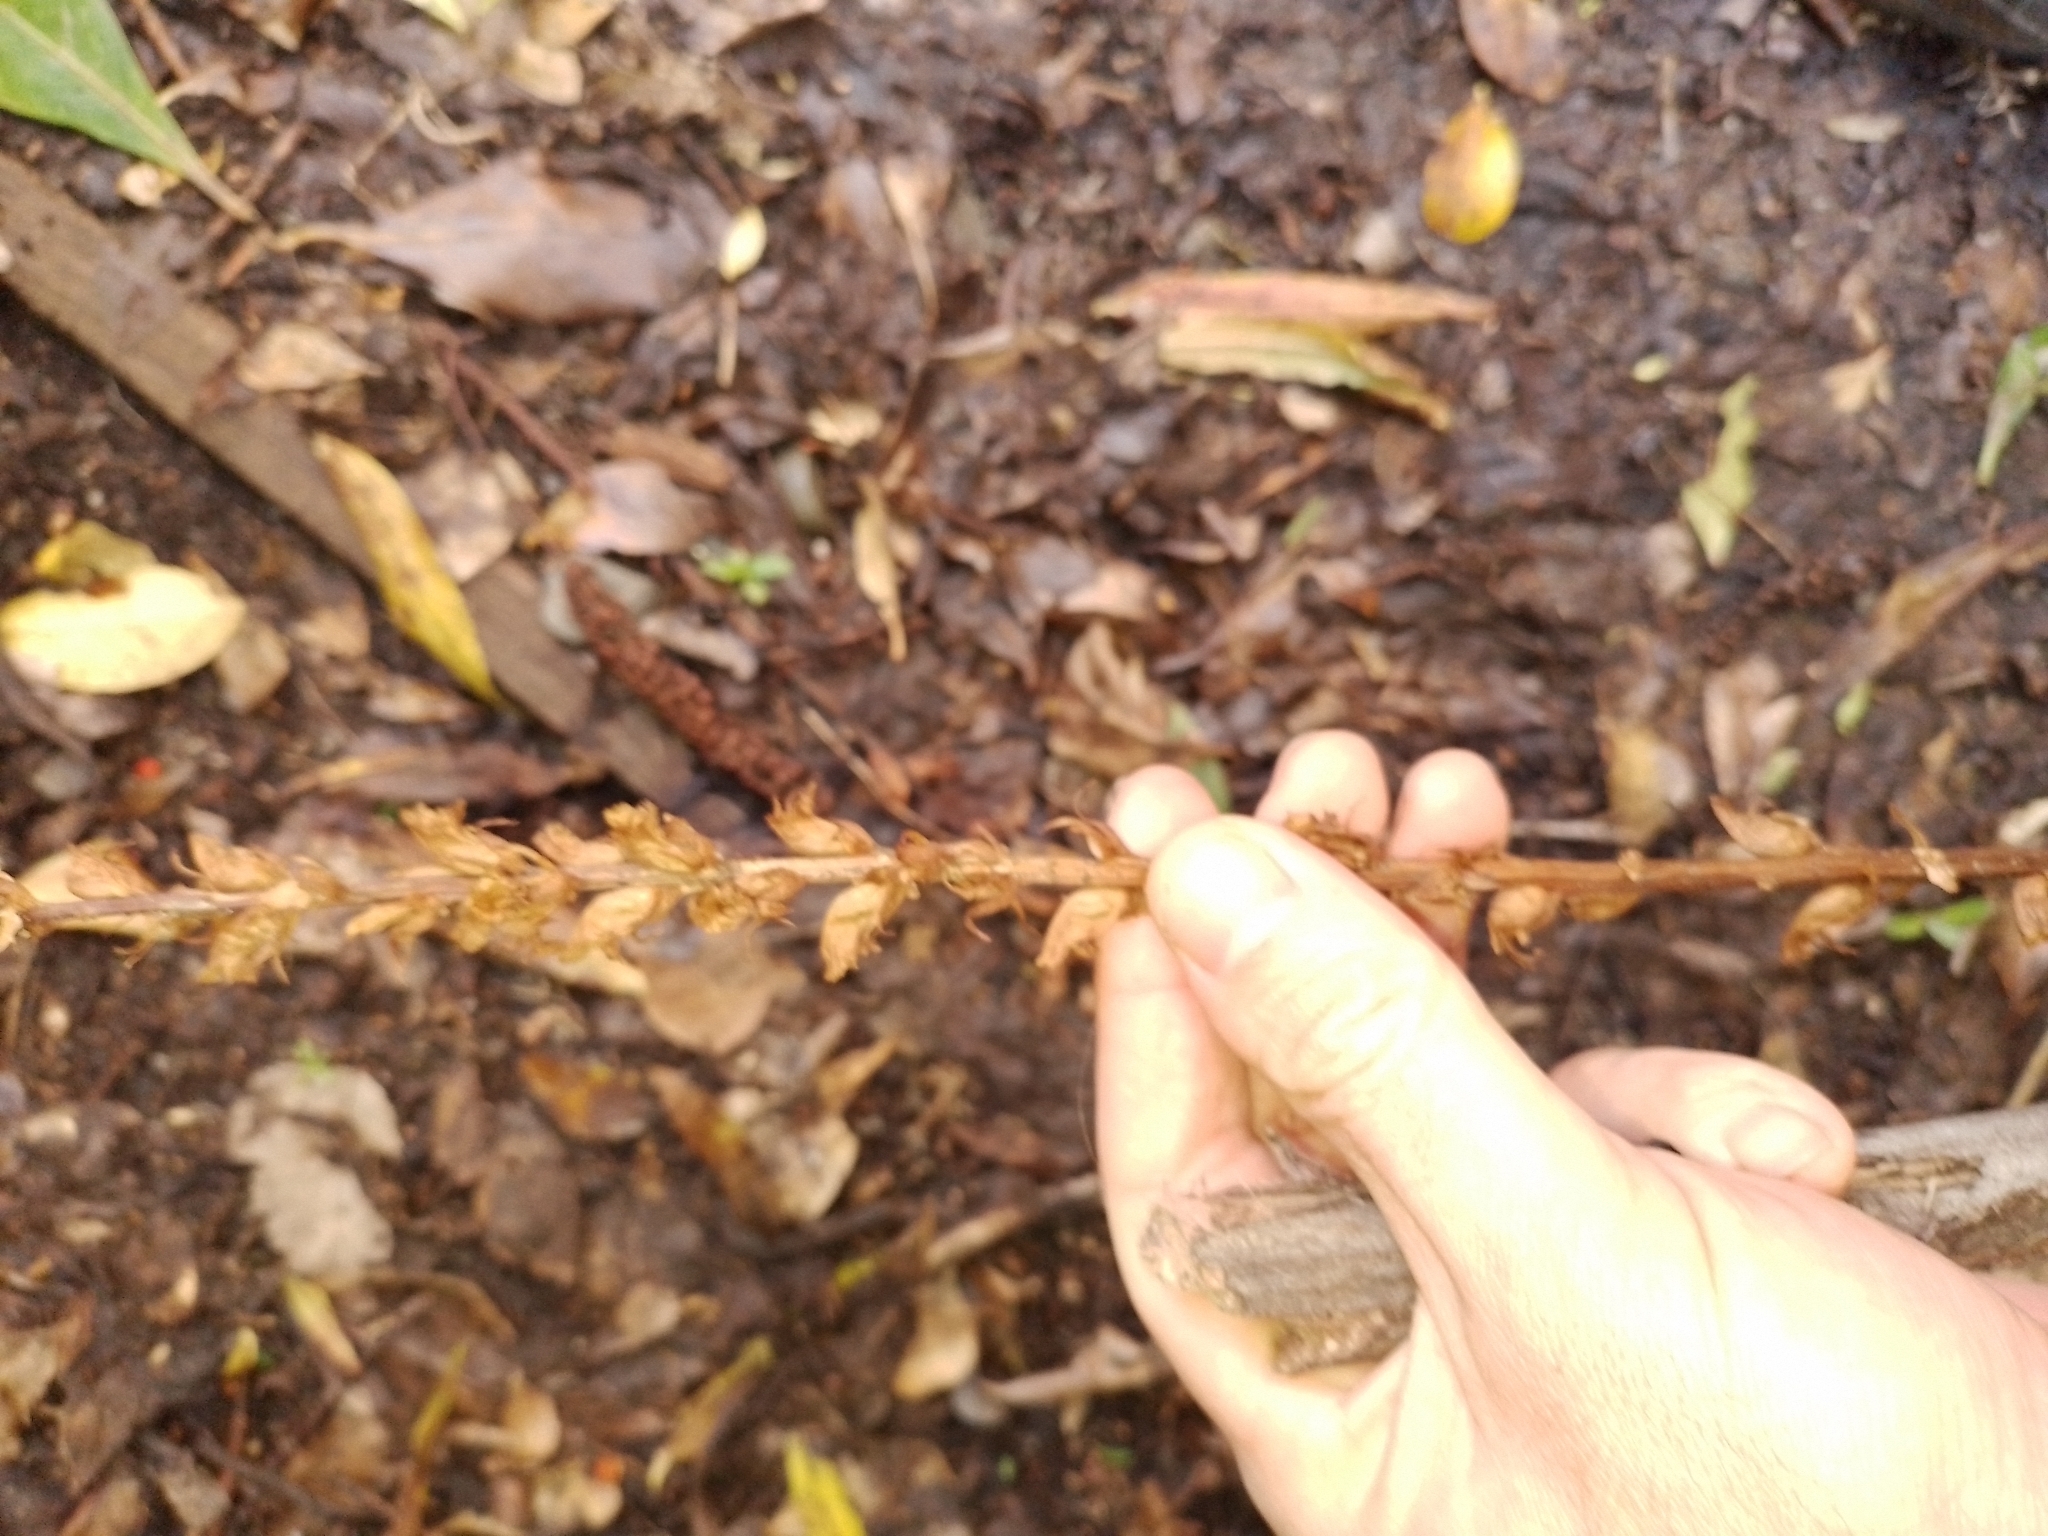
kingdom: Plantae
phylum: Tracheophyta
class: Magnoliopsida
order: Lamiales
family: Orobanchaceae
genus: Orobanche
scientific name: Orobanche minor
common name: Common broomrape
